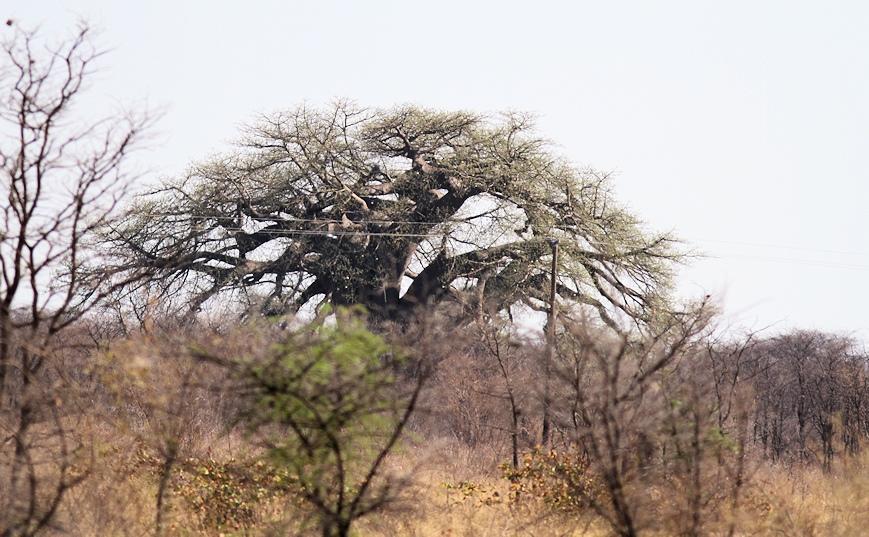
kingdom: Plantae
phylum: Tracheophyta
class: Magnoliopsida
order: Malvales
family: Malvaceae
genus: Adansonia
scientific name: Adansonia digitata
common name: Dead-rat-tree
